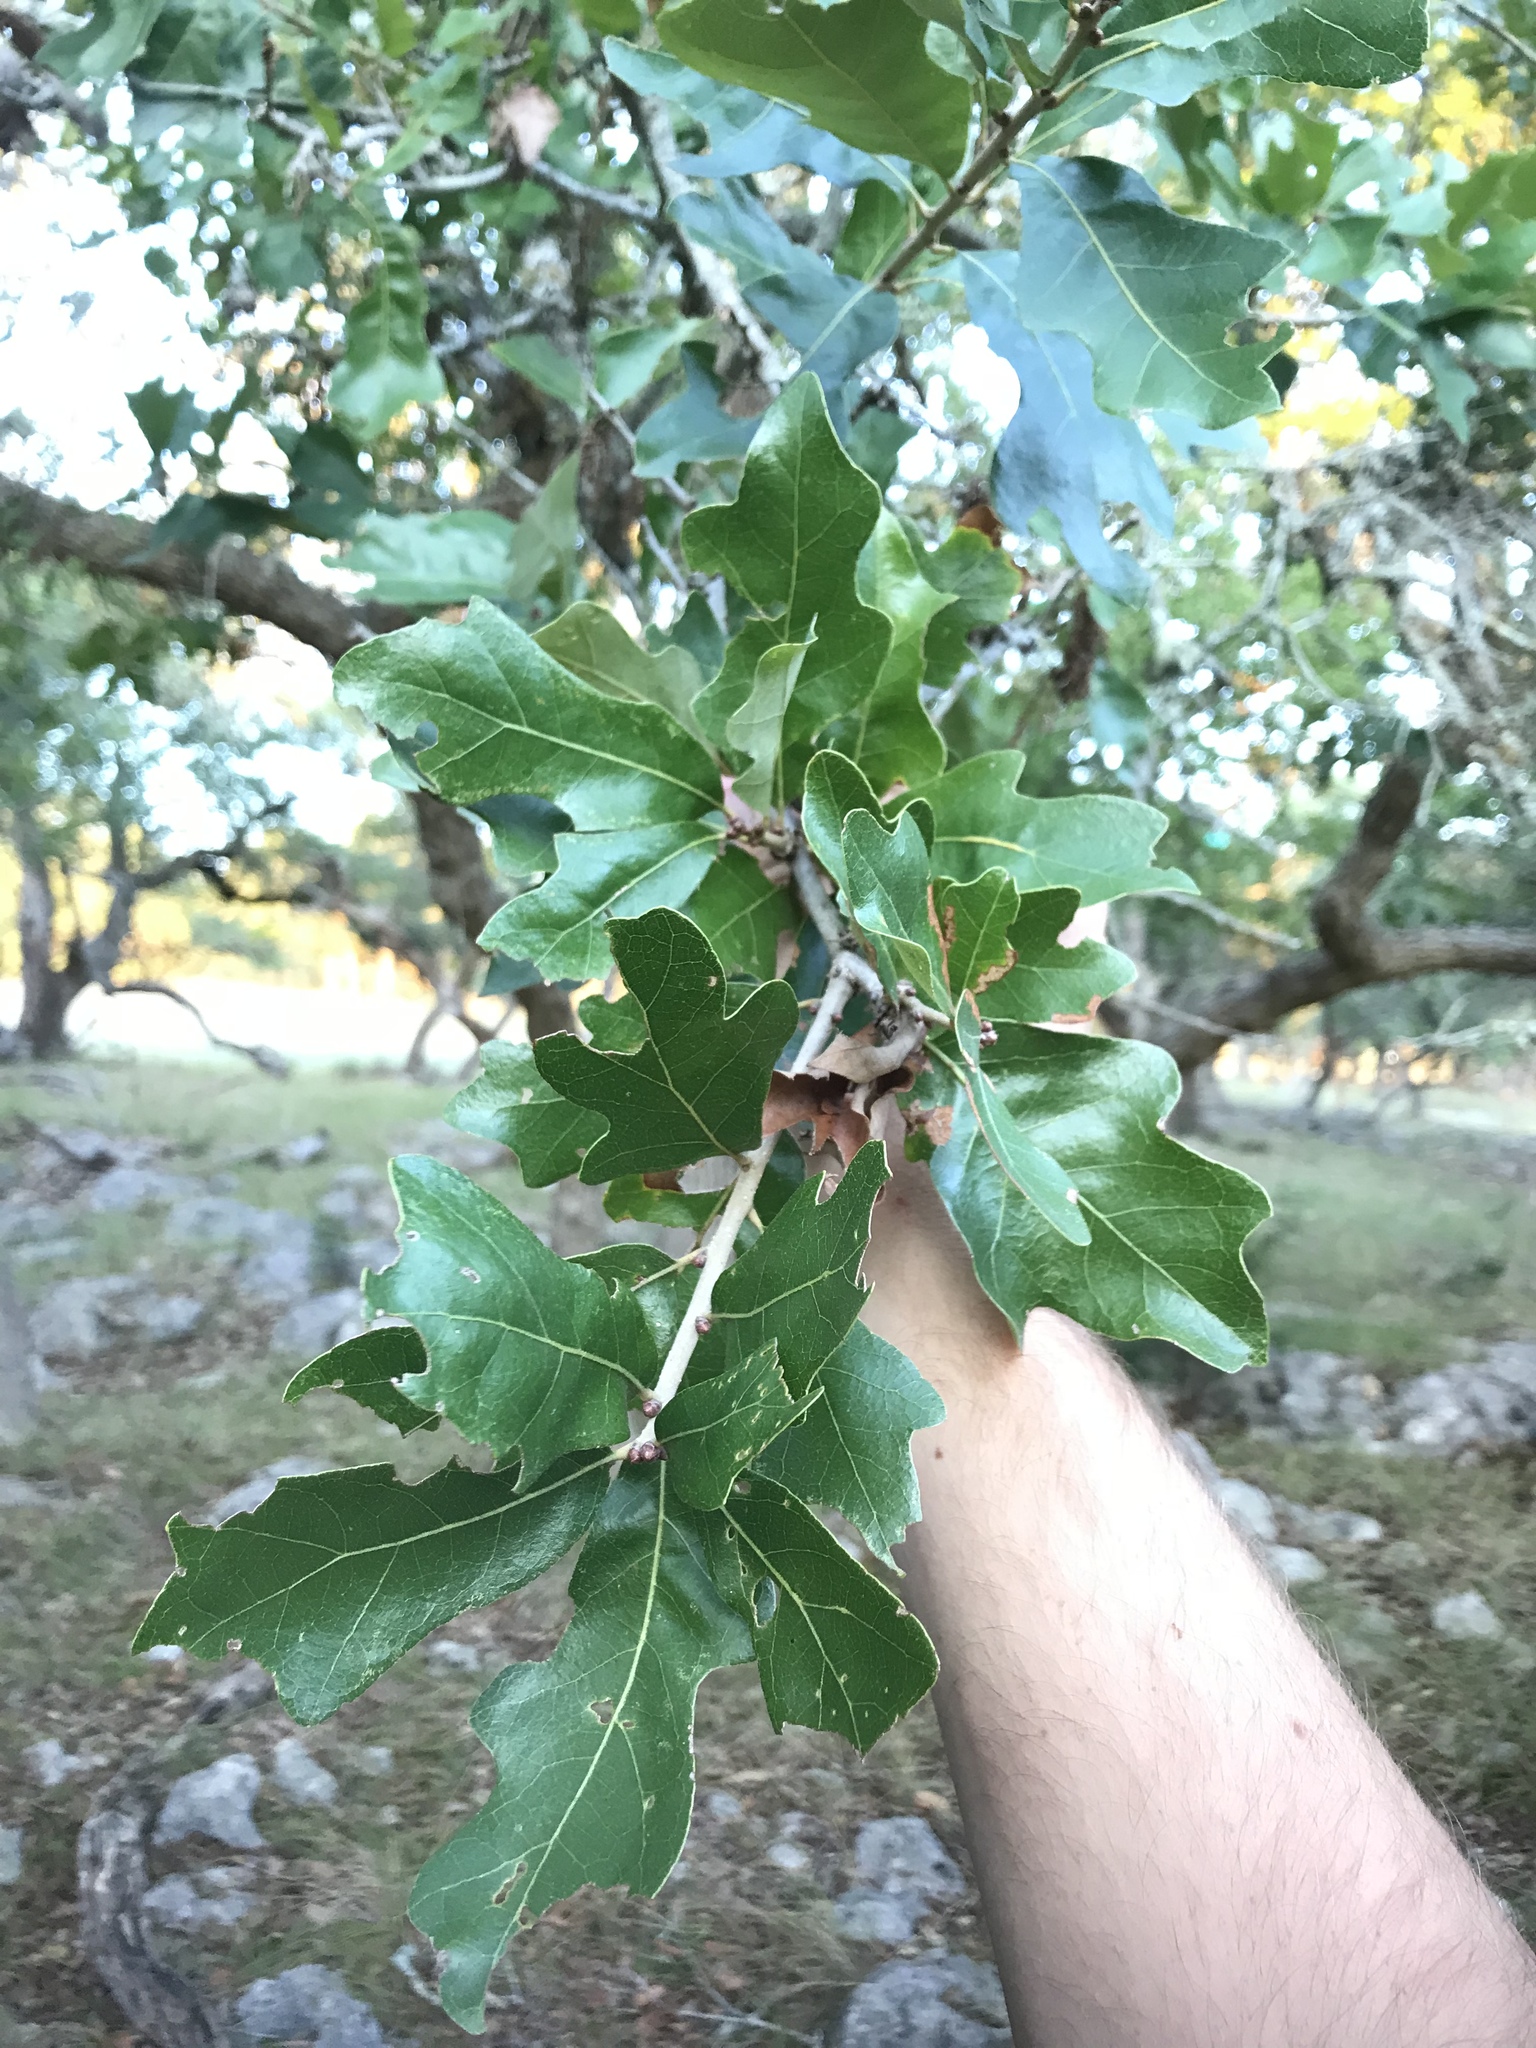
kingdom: Plantae
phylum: Tracheophyta
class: Magnoliopsida
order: Fagales
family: Fagaceae
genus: Quercus
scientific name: Quercus sinuata
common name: Durand oak
